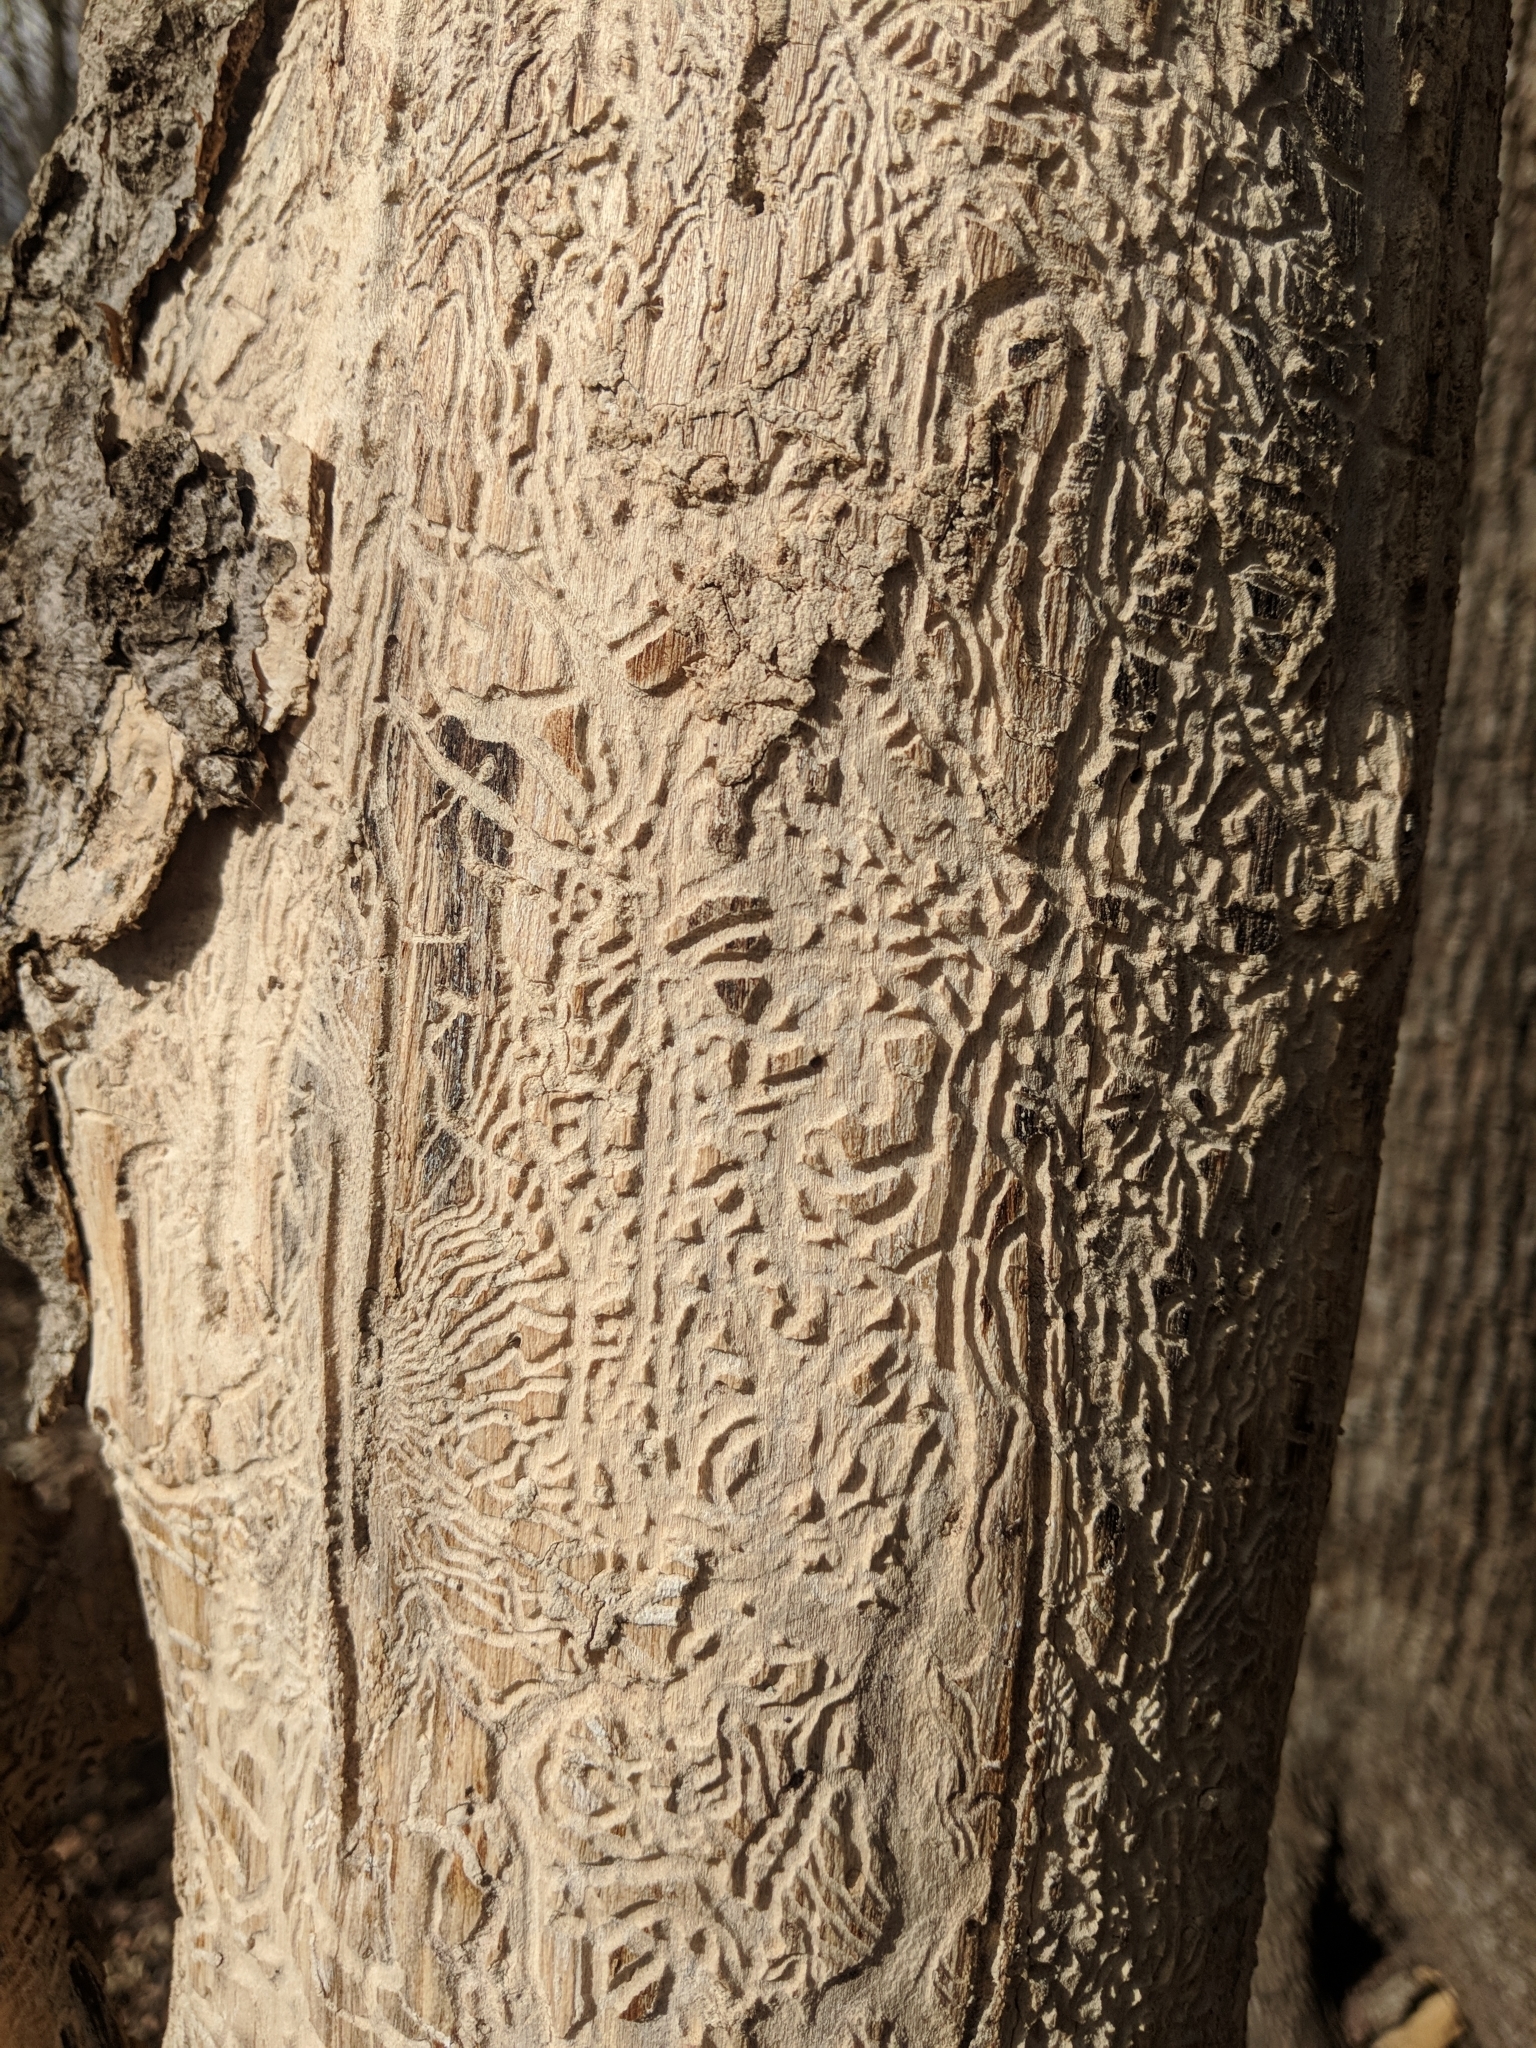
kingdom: Animalia
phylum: Arthropoda
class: Insecta
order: Coleoptera
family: Buprestidae
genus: Agrilus
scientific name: Agrilus planipennis
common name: Emerald ash borer
